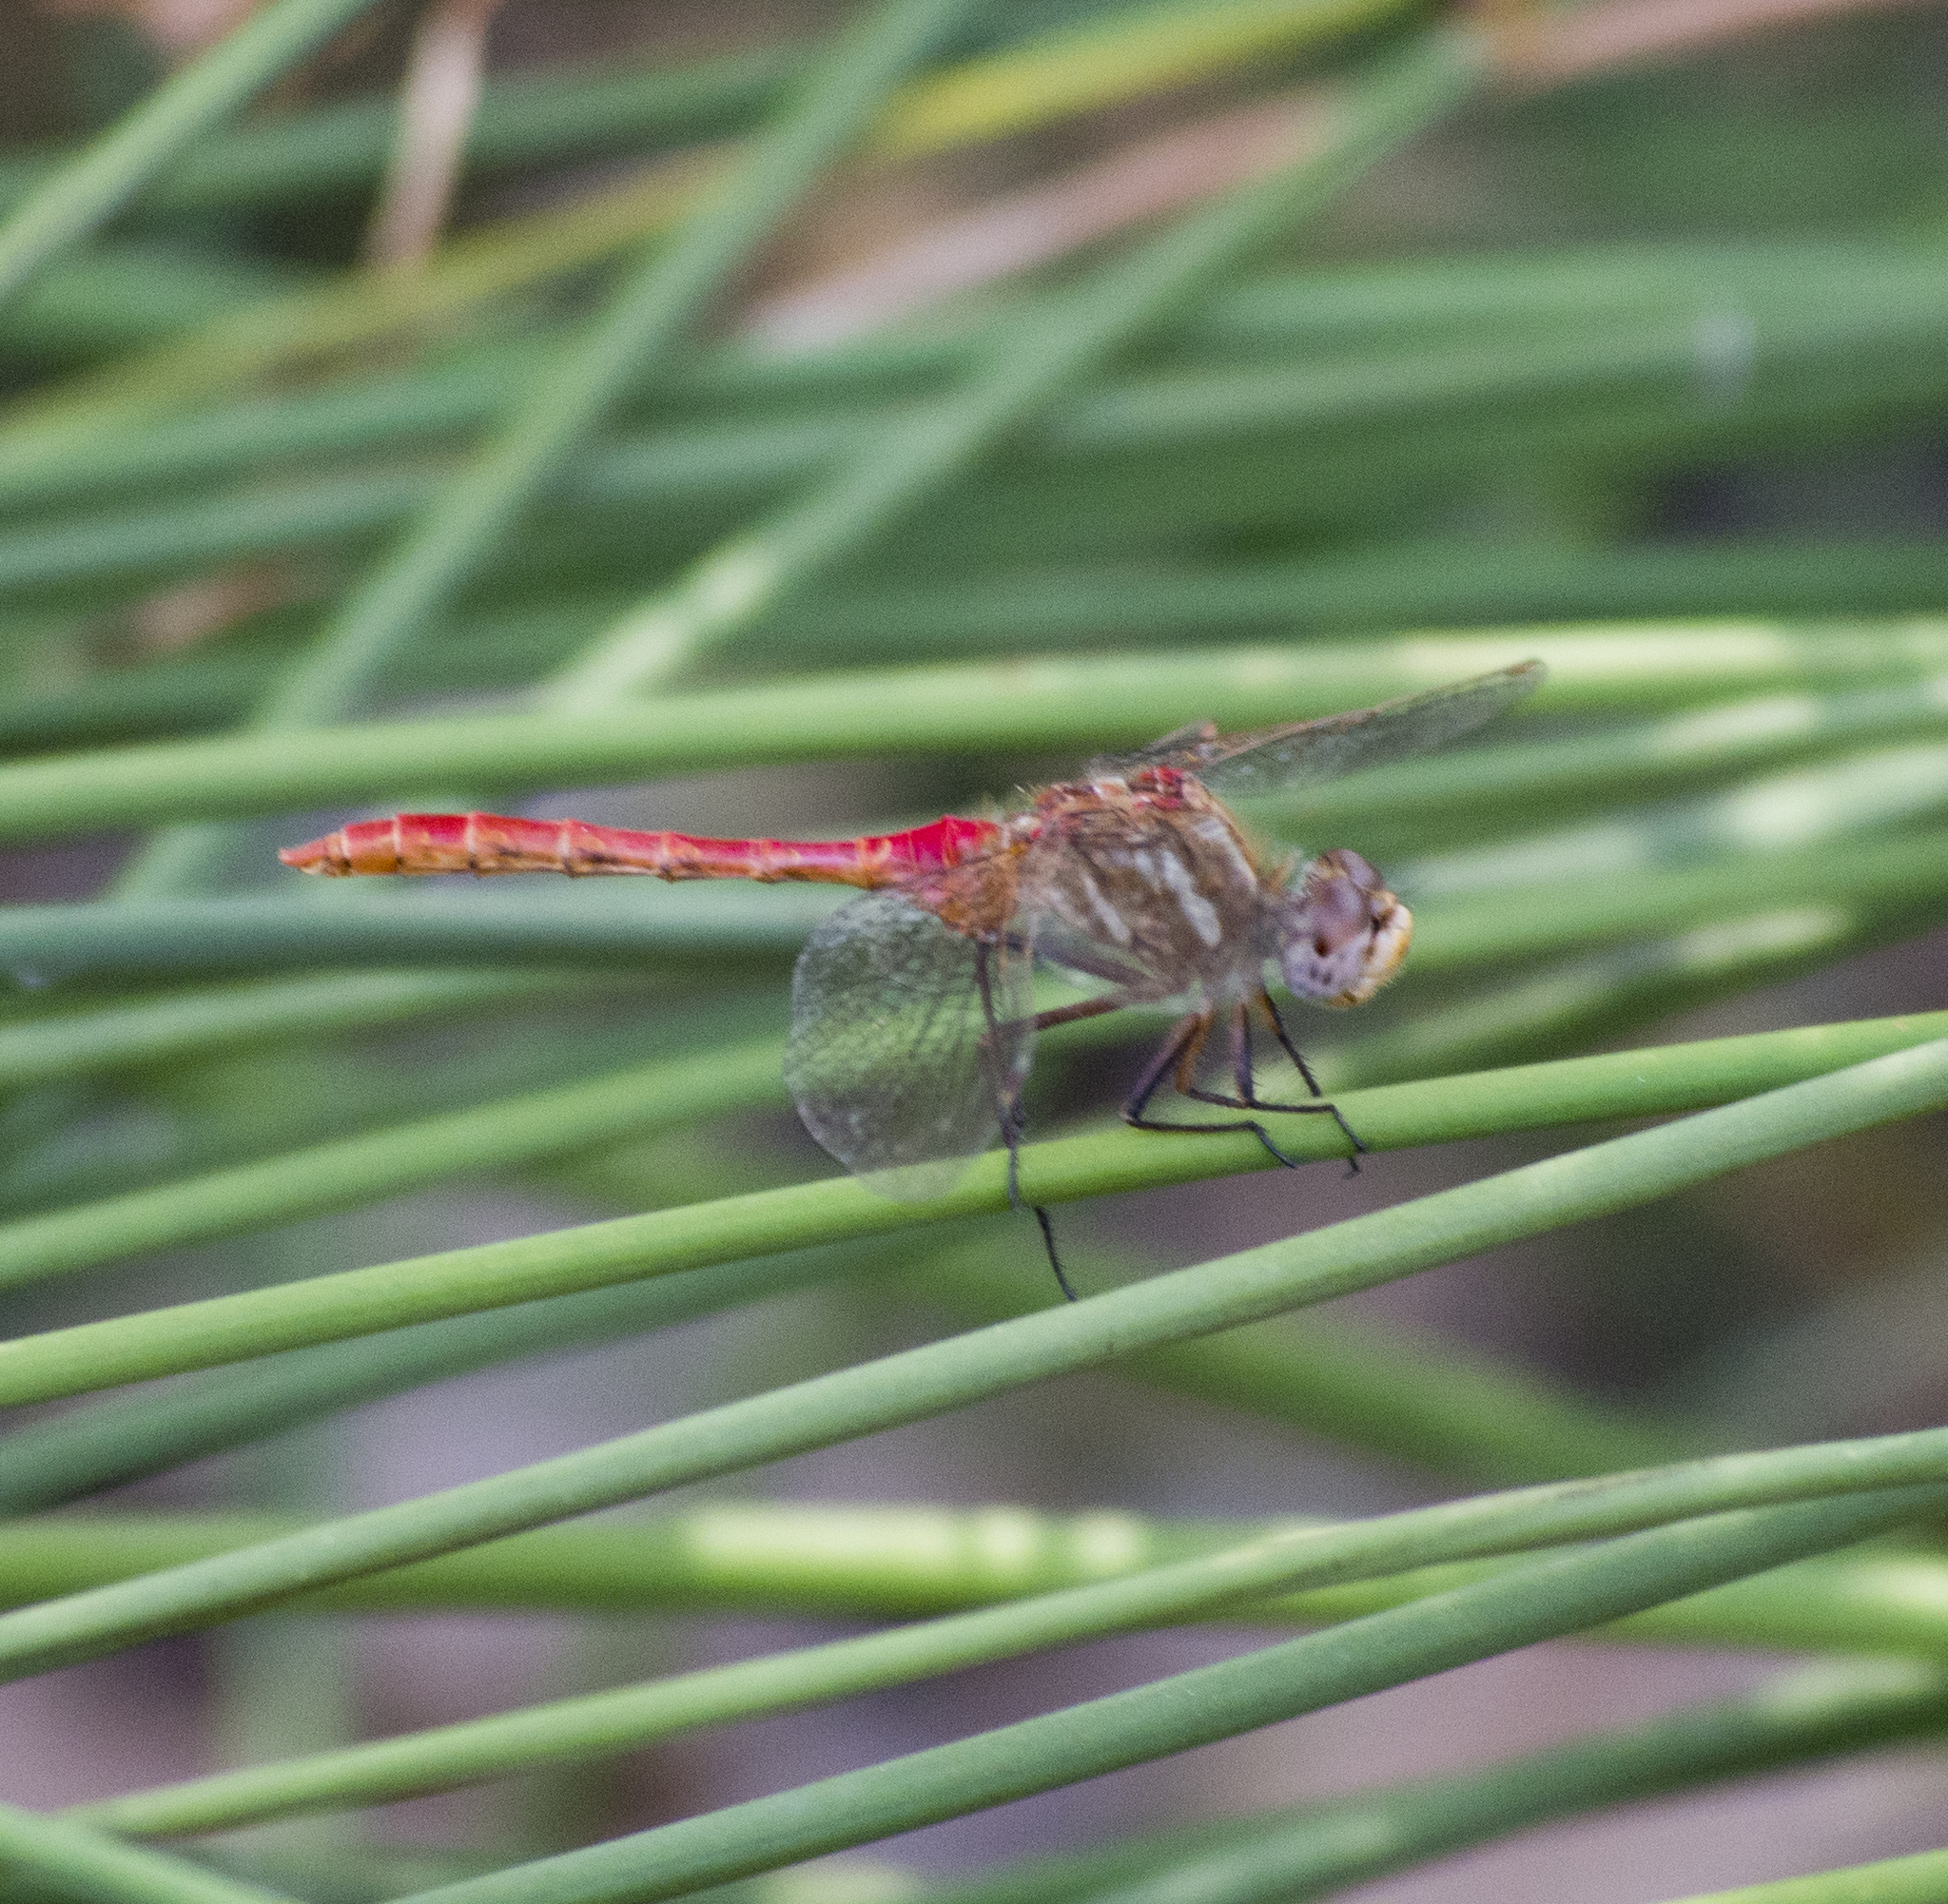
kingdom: Animalia
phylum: Arthropoda
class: Insecta
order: Odonata
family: Libellulidae
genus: Sympetrum
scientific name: Sympetrum pallipes
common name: Striped meadowhawk
